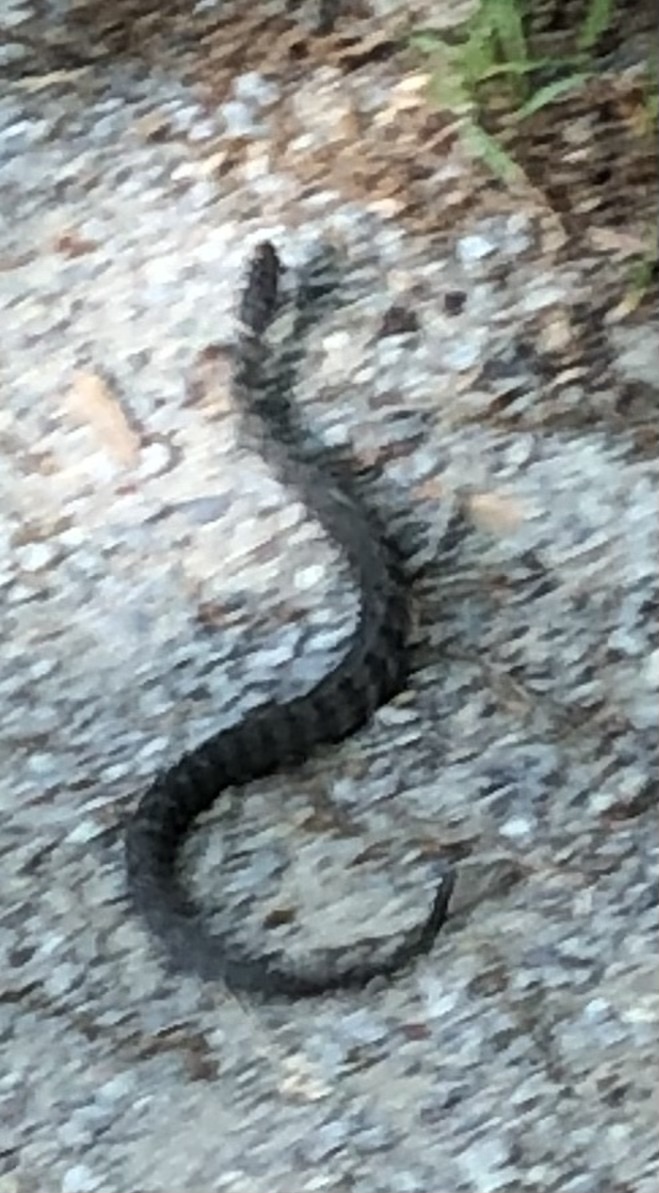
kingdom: Animalia
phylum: Chordata
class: Squamata
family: Colubridae
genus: Nerodia
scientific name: Nerodia sipedon
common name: Northern water snake
